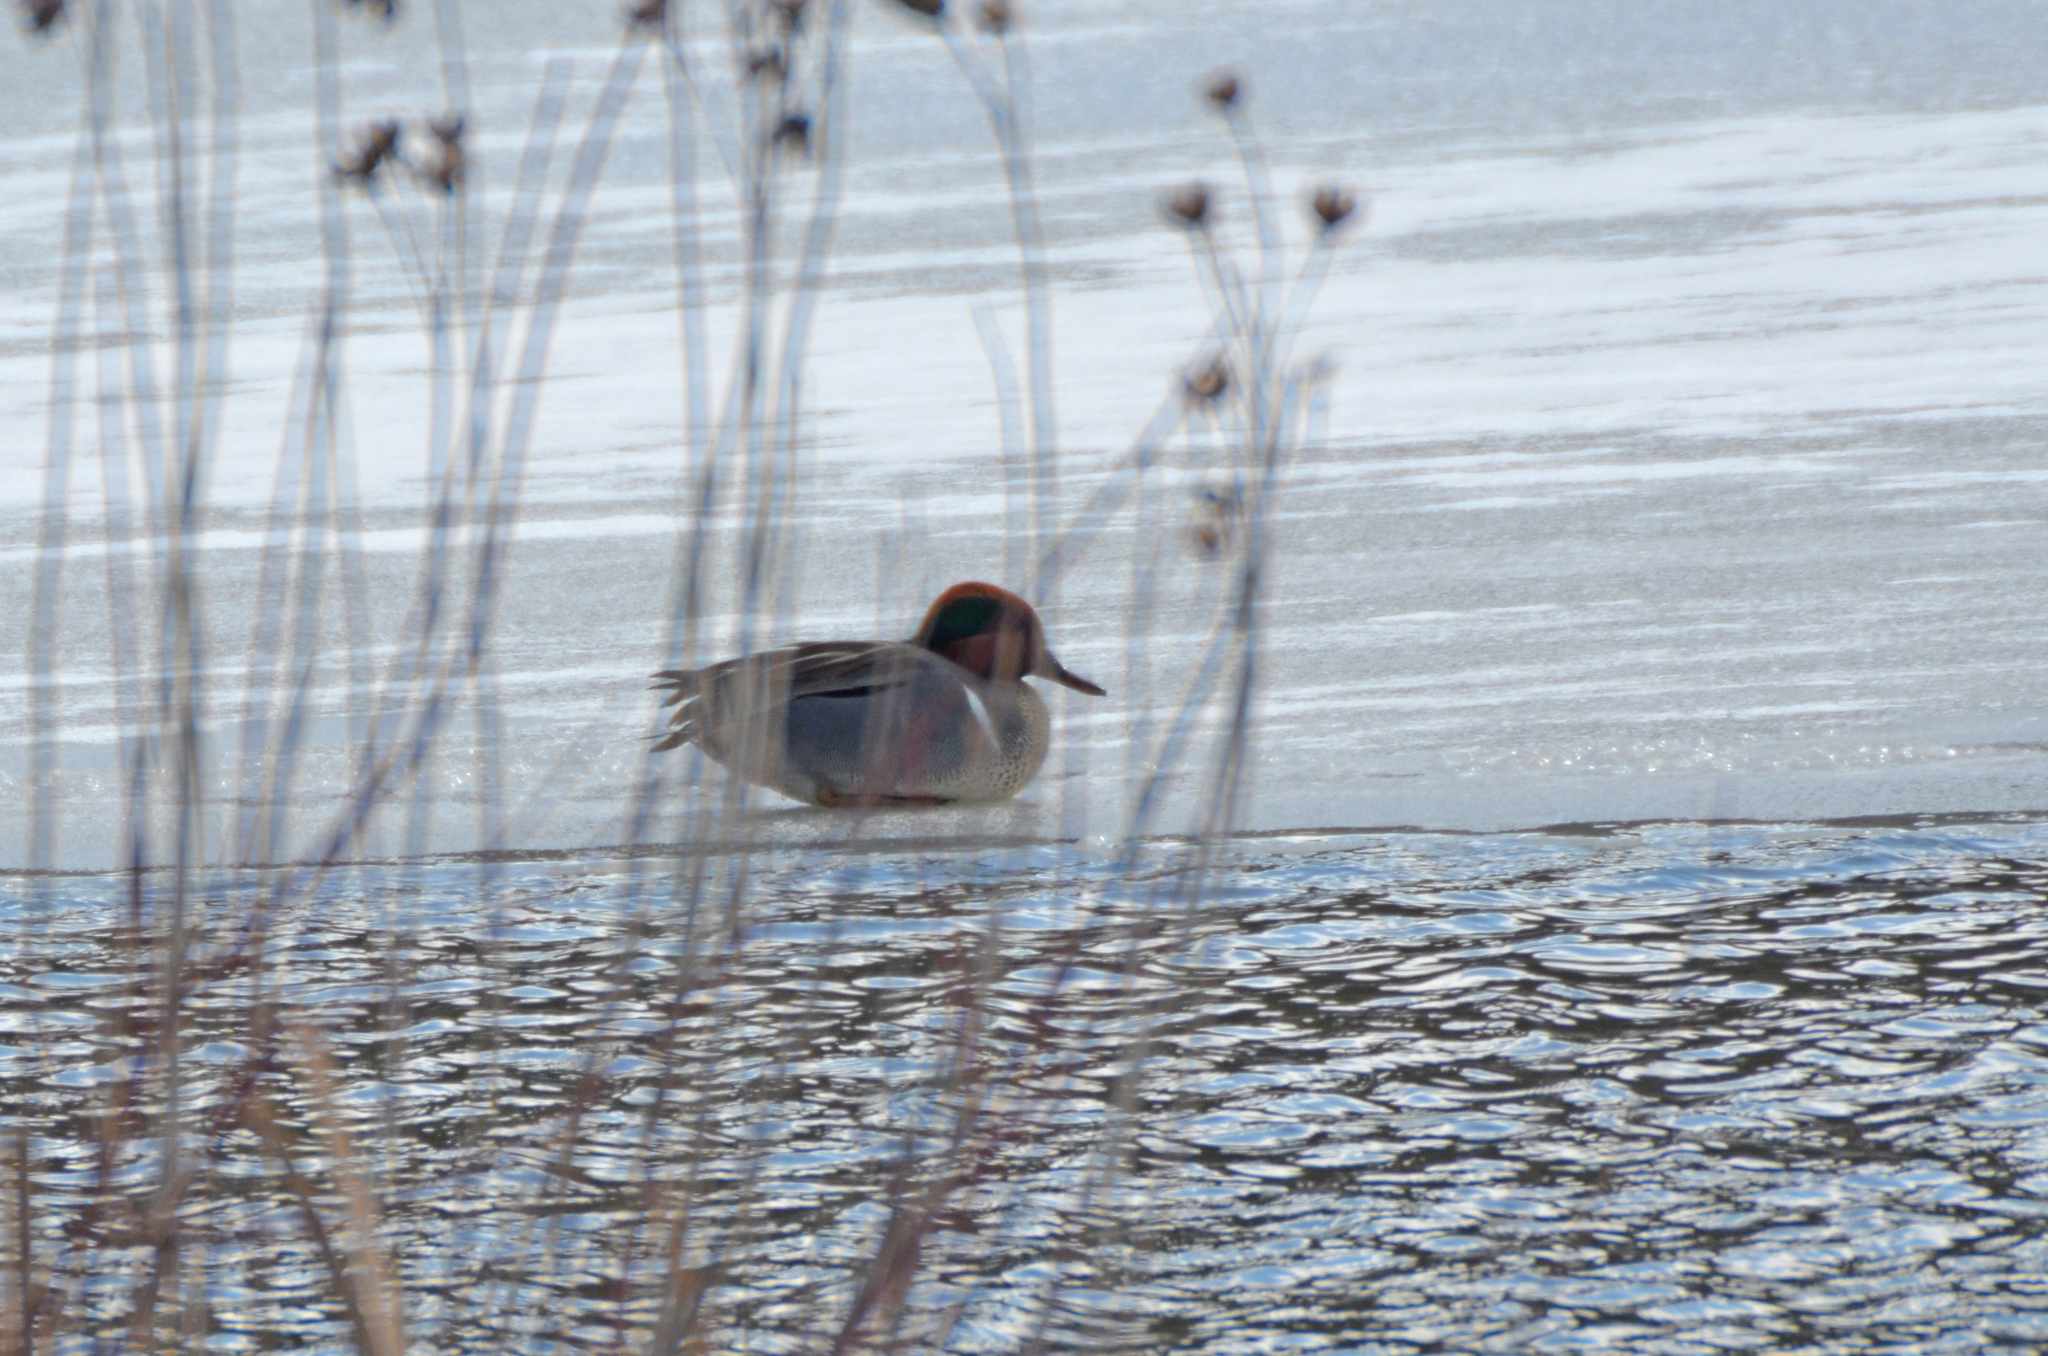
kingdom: Animalia
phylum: Chordata
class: Aves
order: Anseriformes
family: Anatidae
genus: Anas
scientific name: Anas crecca
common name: Eurasian teal
